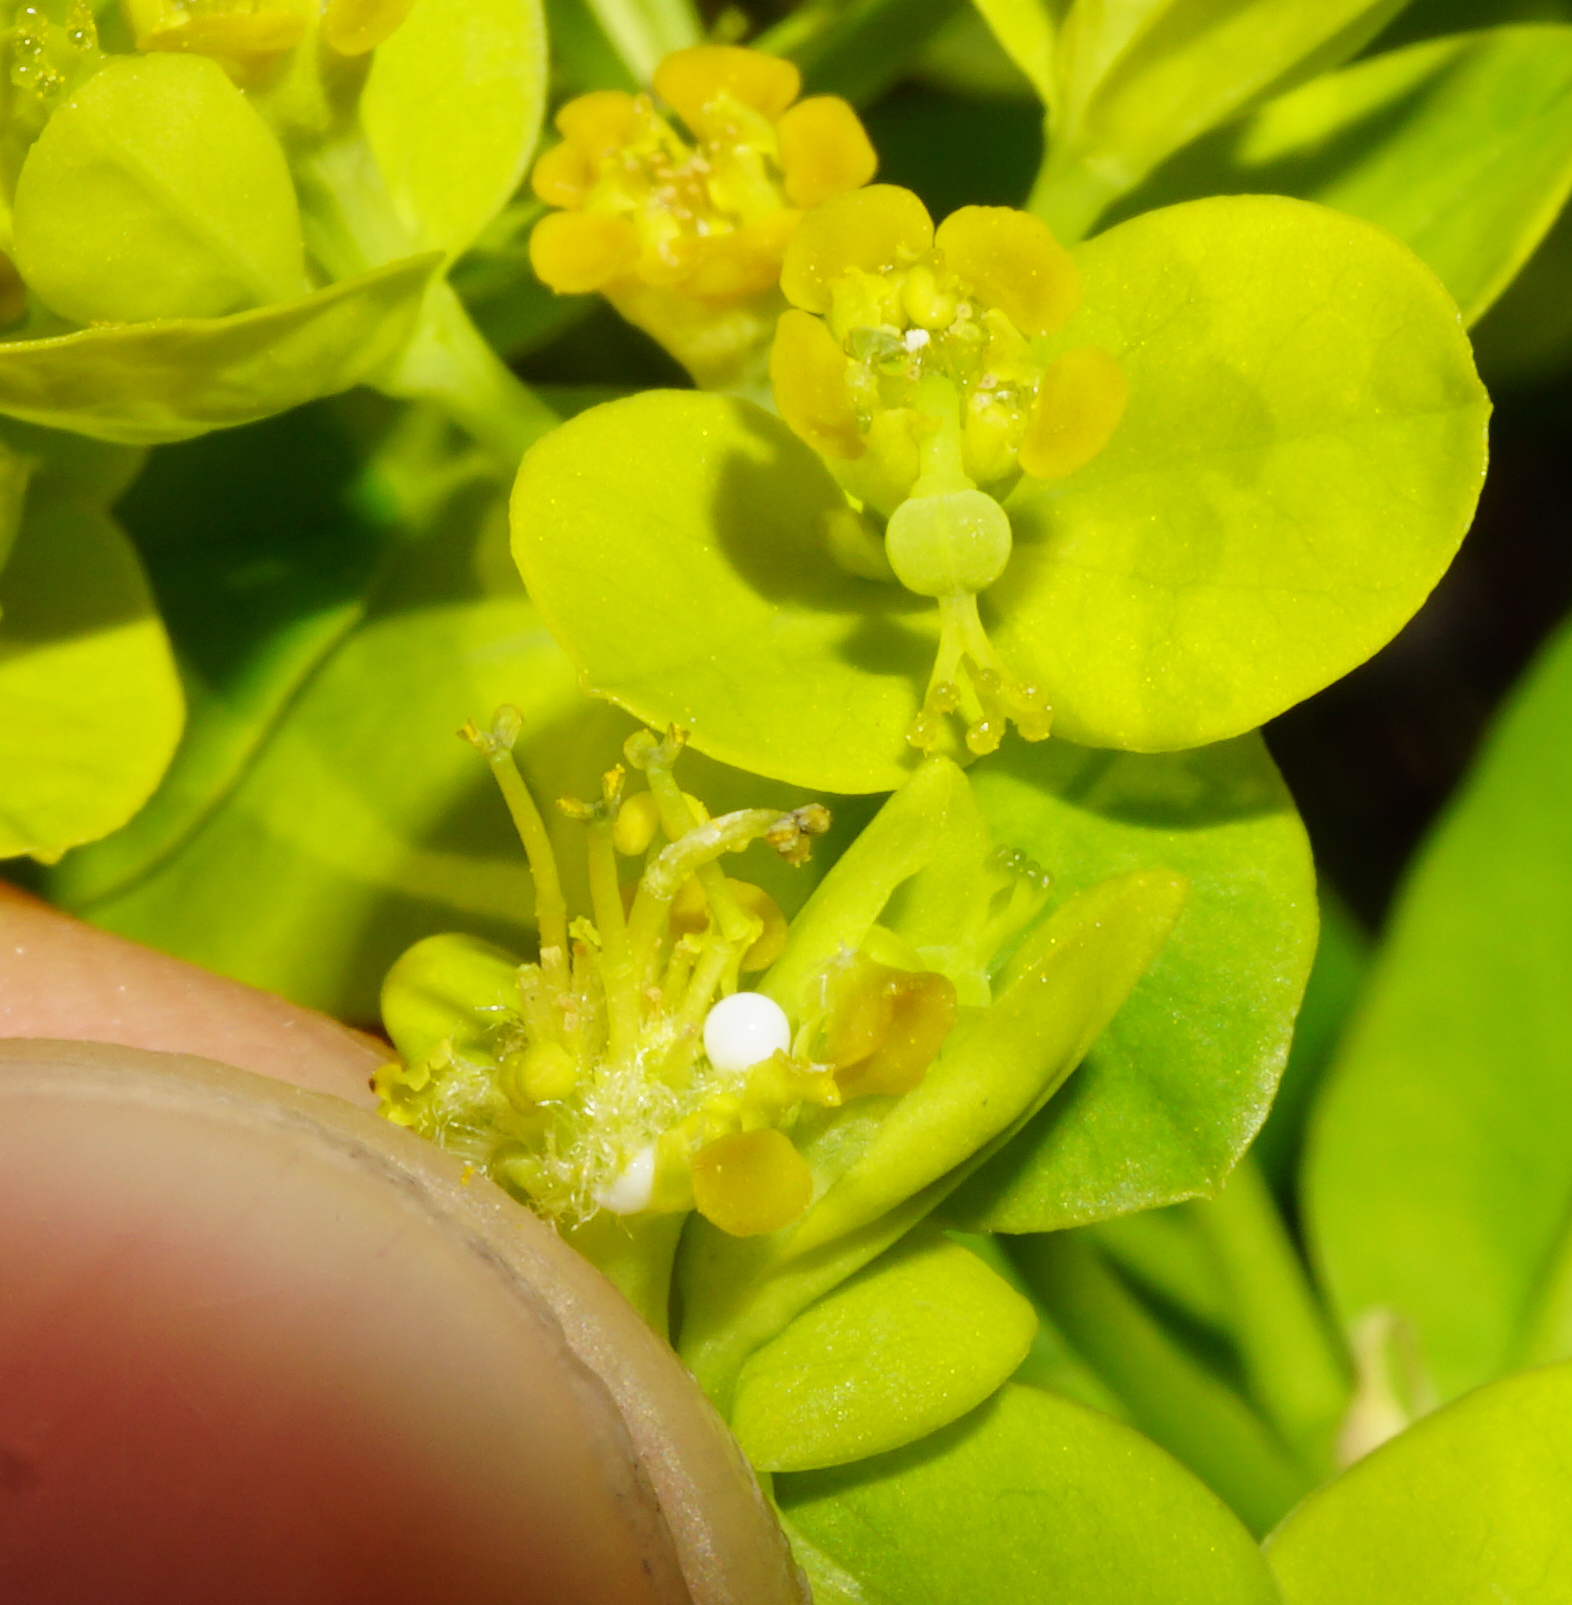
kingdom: Plantae
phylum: Tracheophyta
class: Magnoliopsida
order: Malpighiales
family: Euphorbiaceae
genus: Euphorbia
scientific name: Euphorbia illirica
